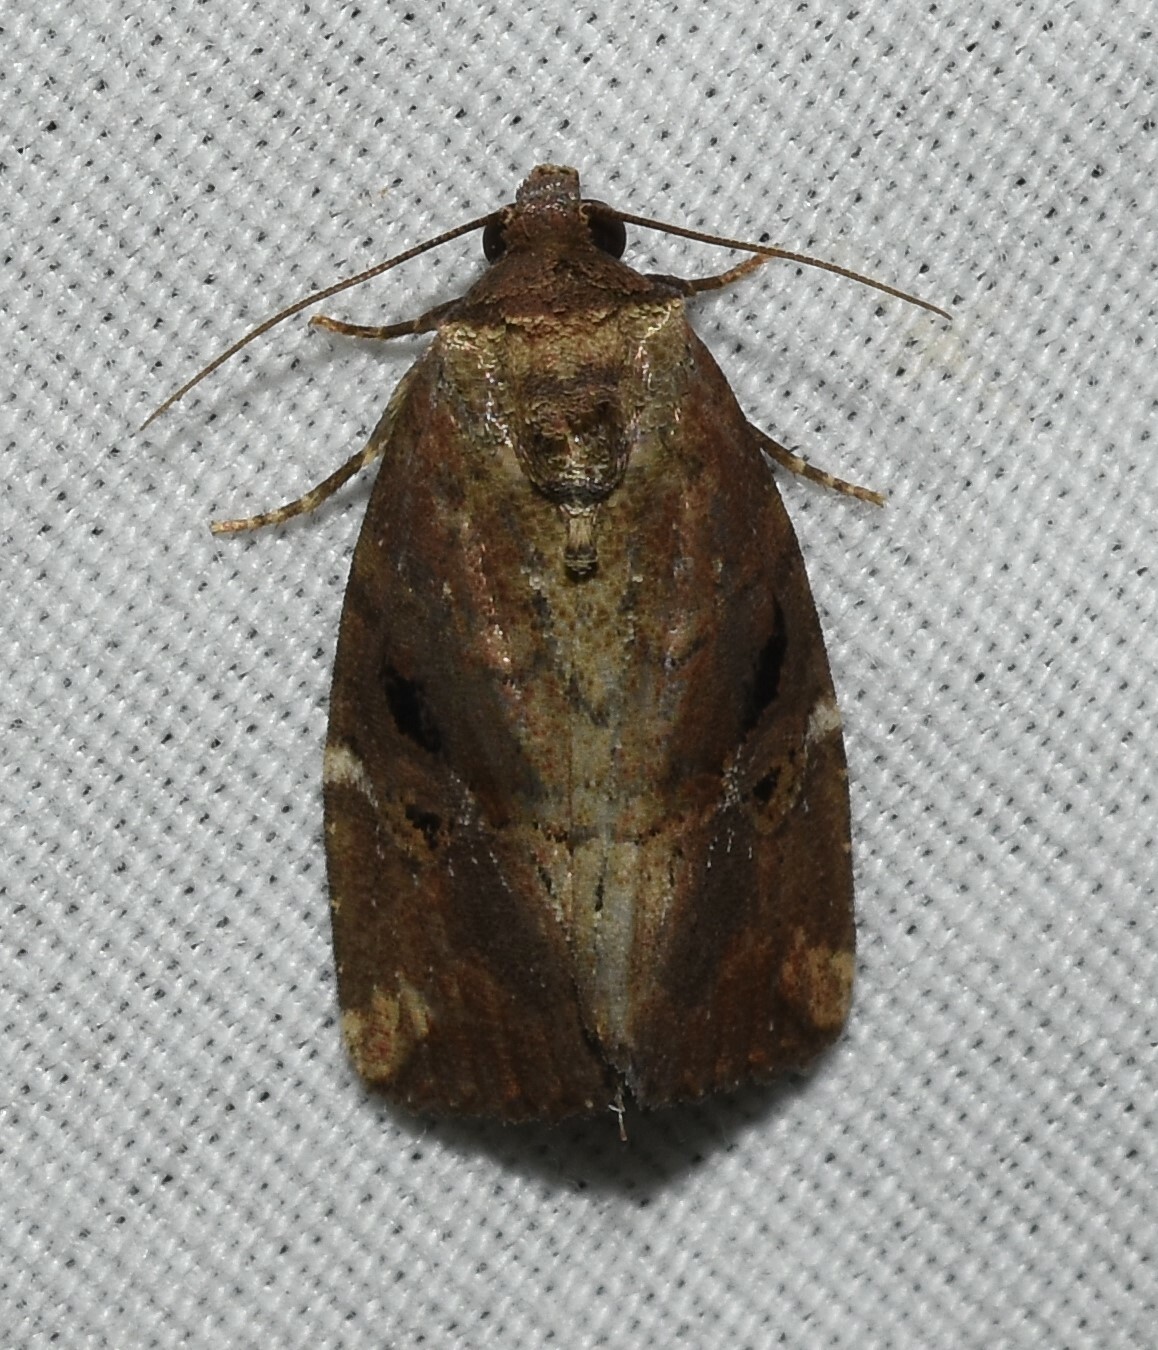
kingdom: Animalia
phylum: Arthropoda
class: Insecta
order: Lepidoptera
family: Noctuidae
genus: Elaphria
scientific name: Elaphria versicolor
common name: Fir harlequin
